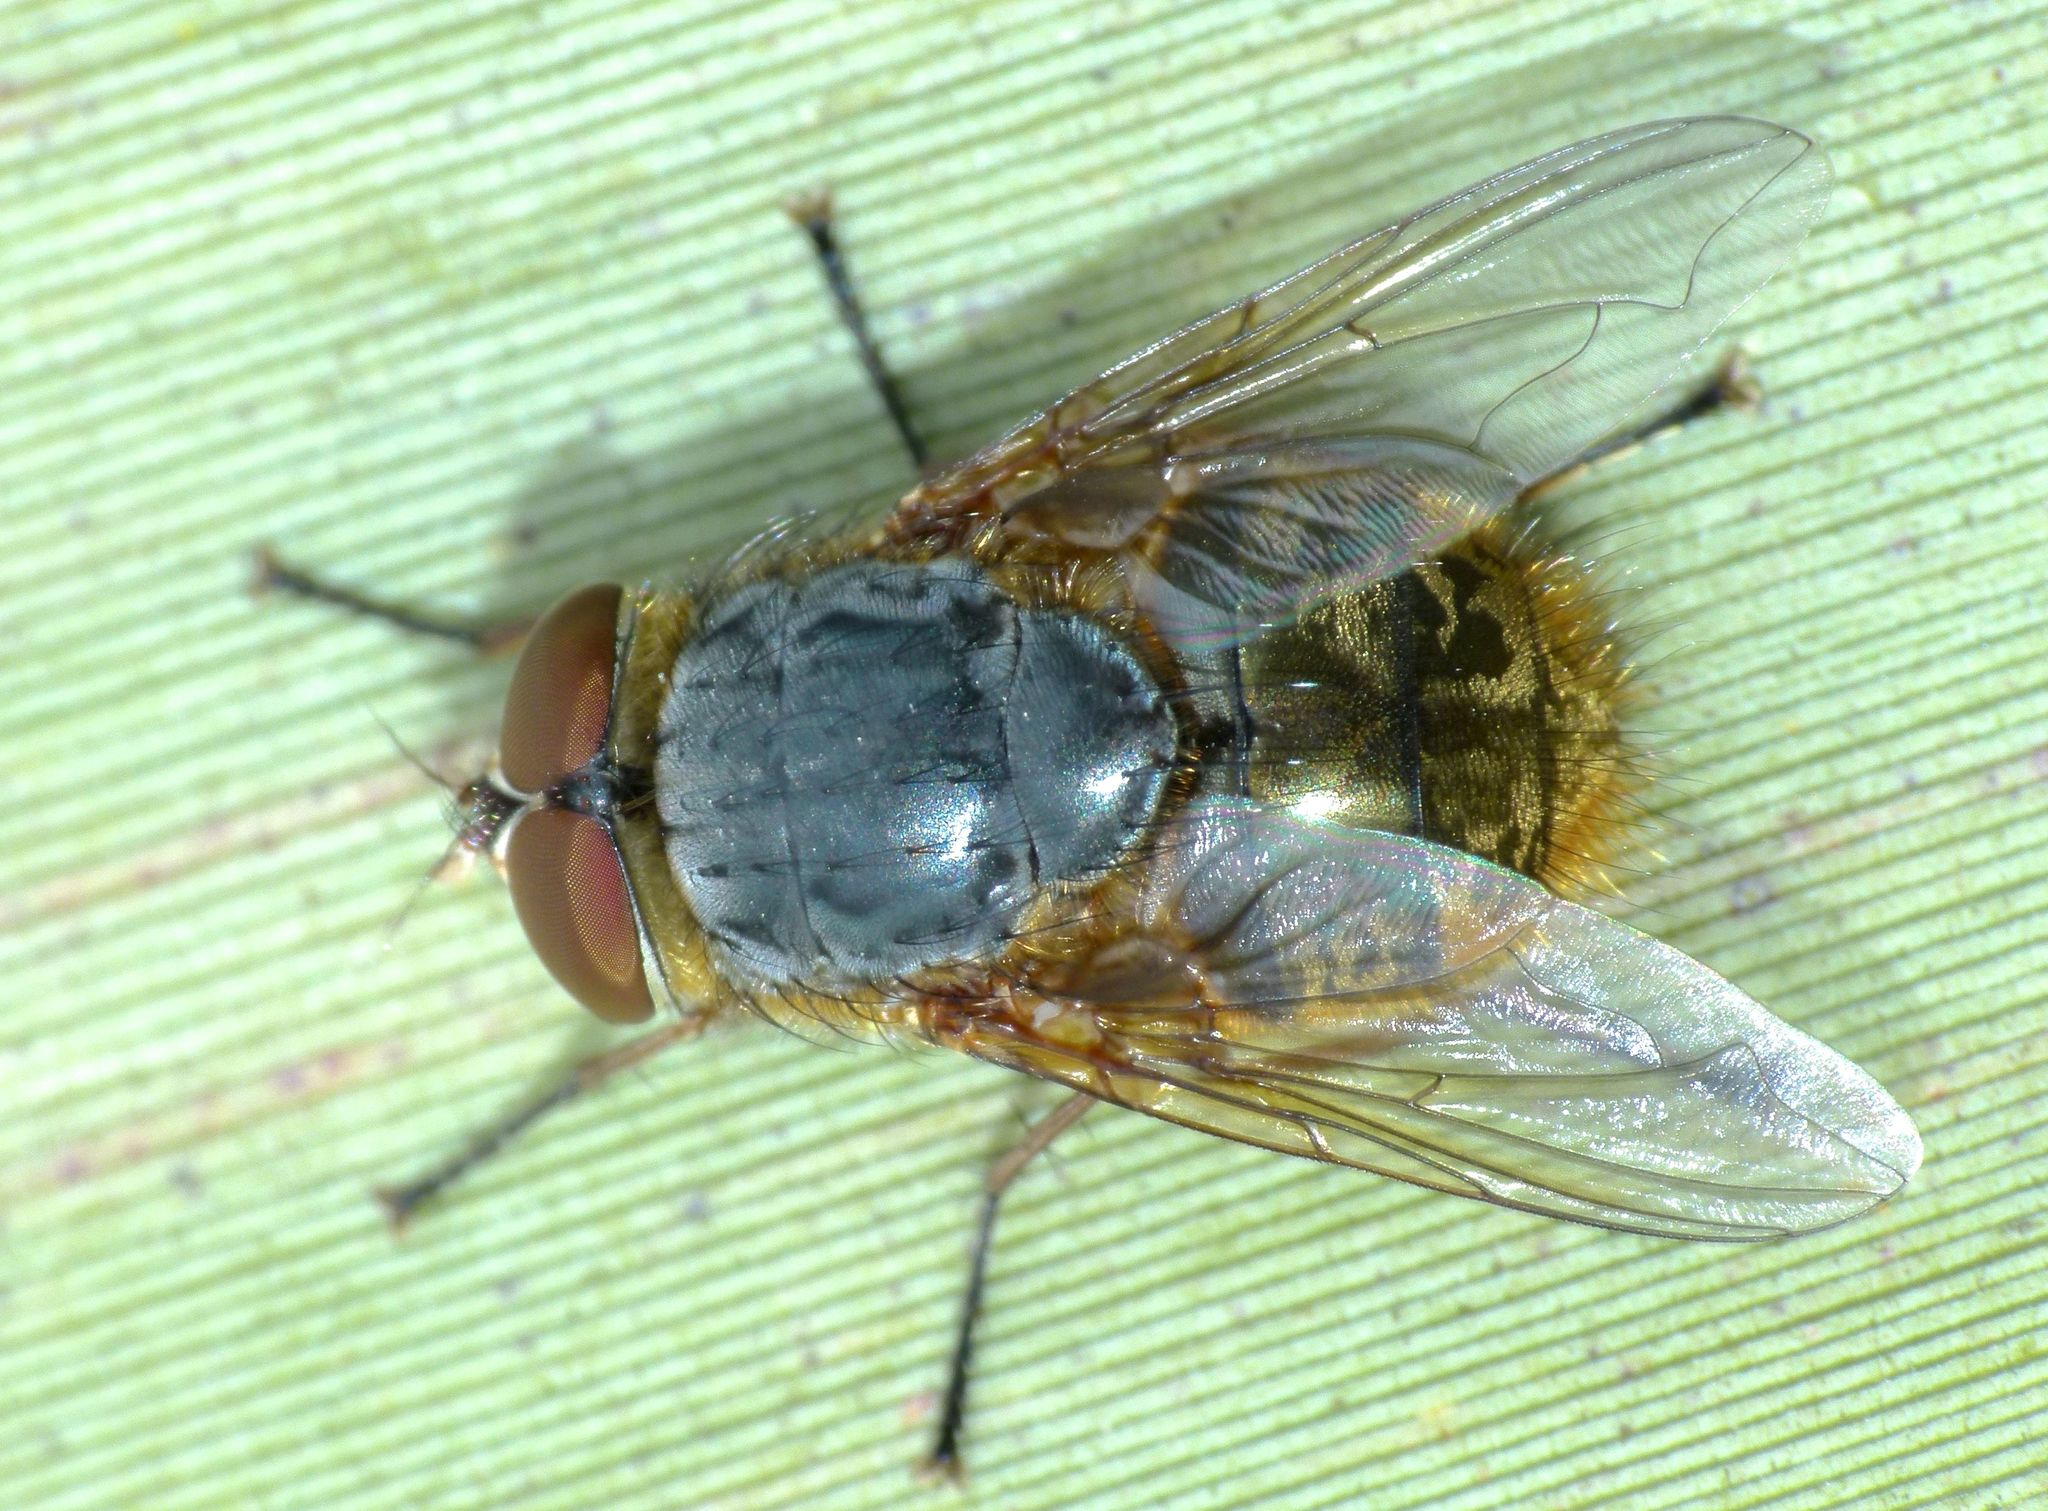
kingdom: Animalia
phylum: Arthropoda
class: Insecta
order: Diptera
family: Calliphoridae
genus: Calliphora
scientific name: Calliphora stygia
